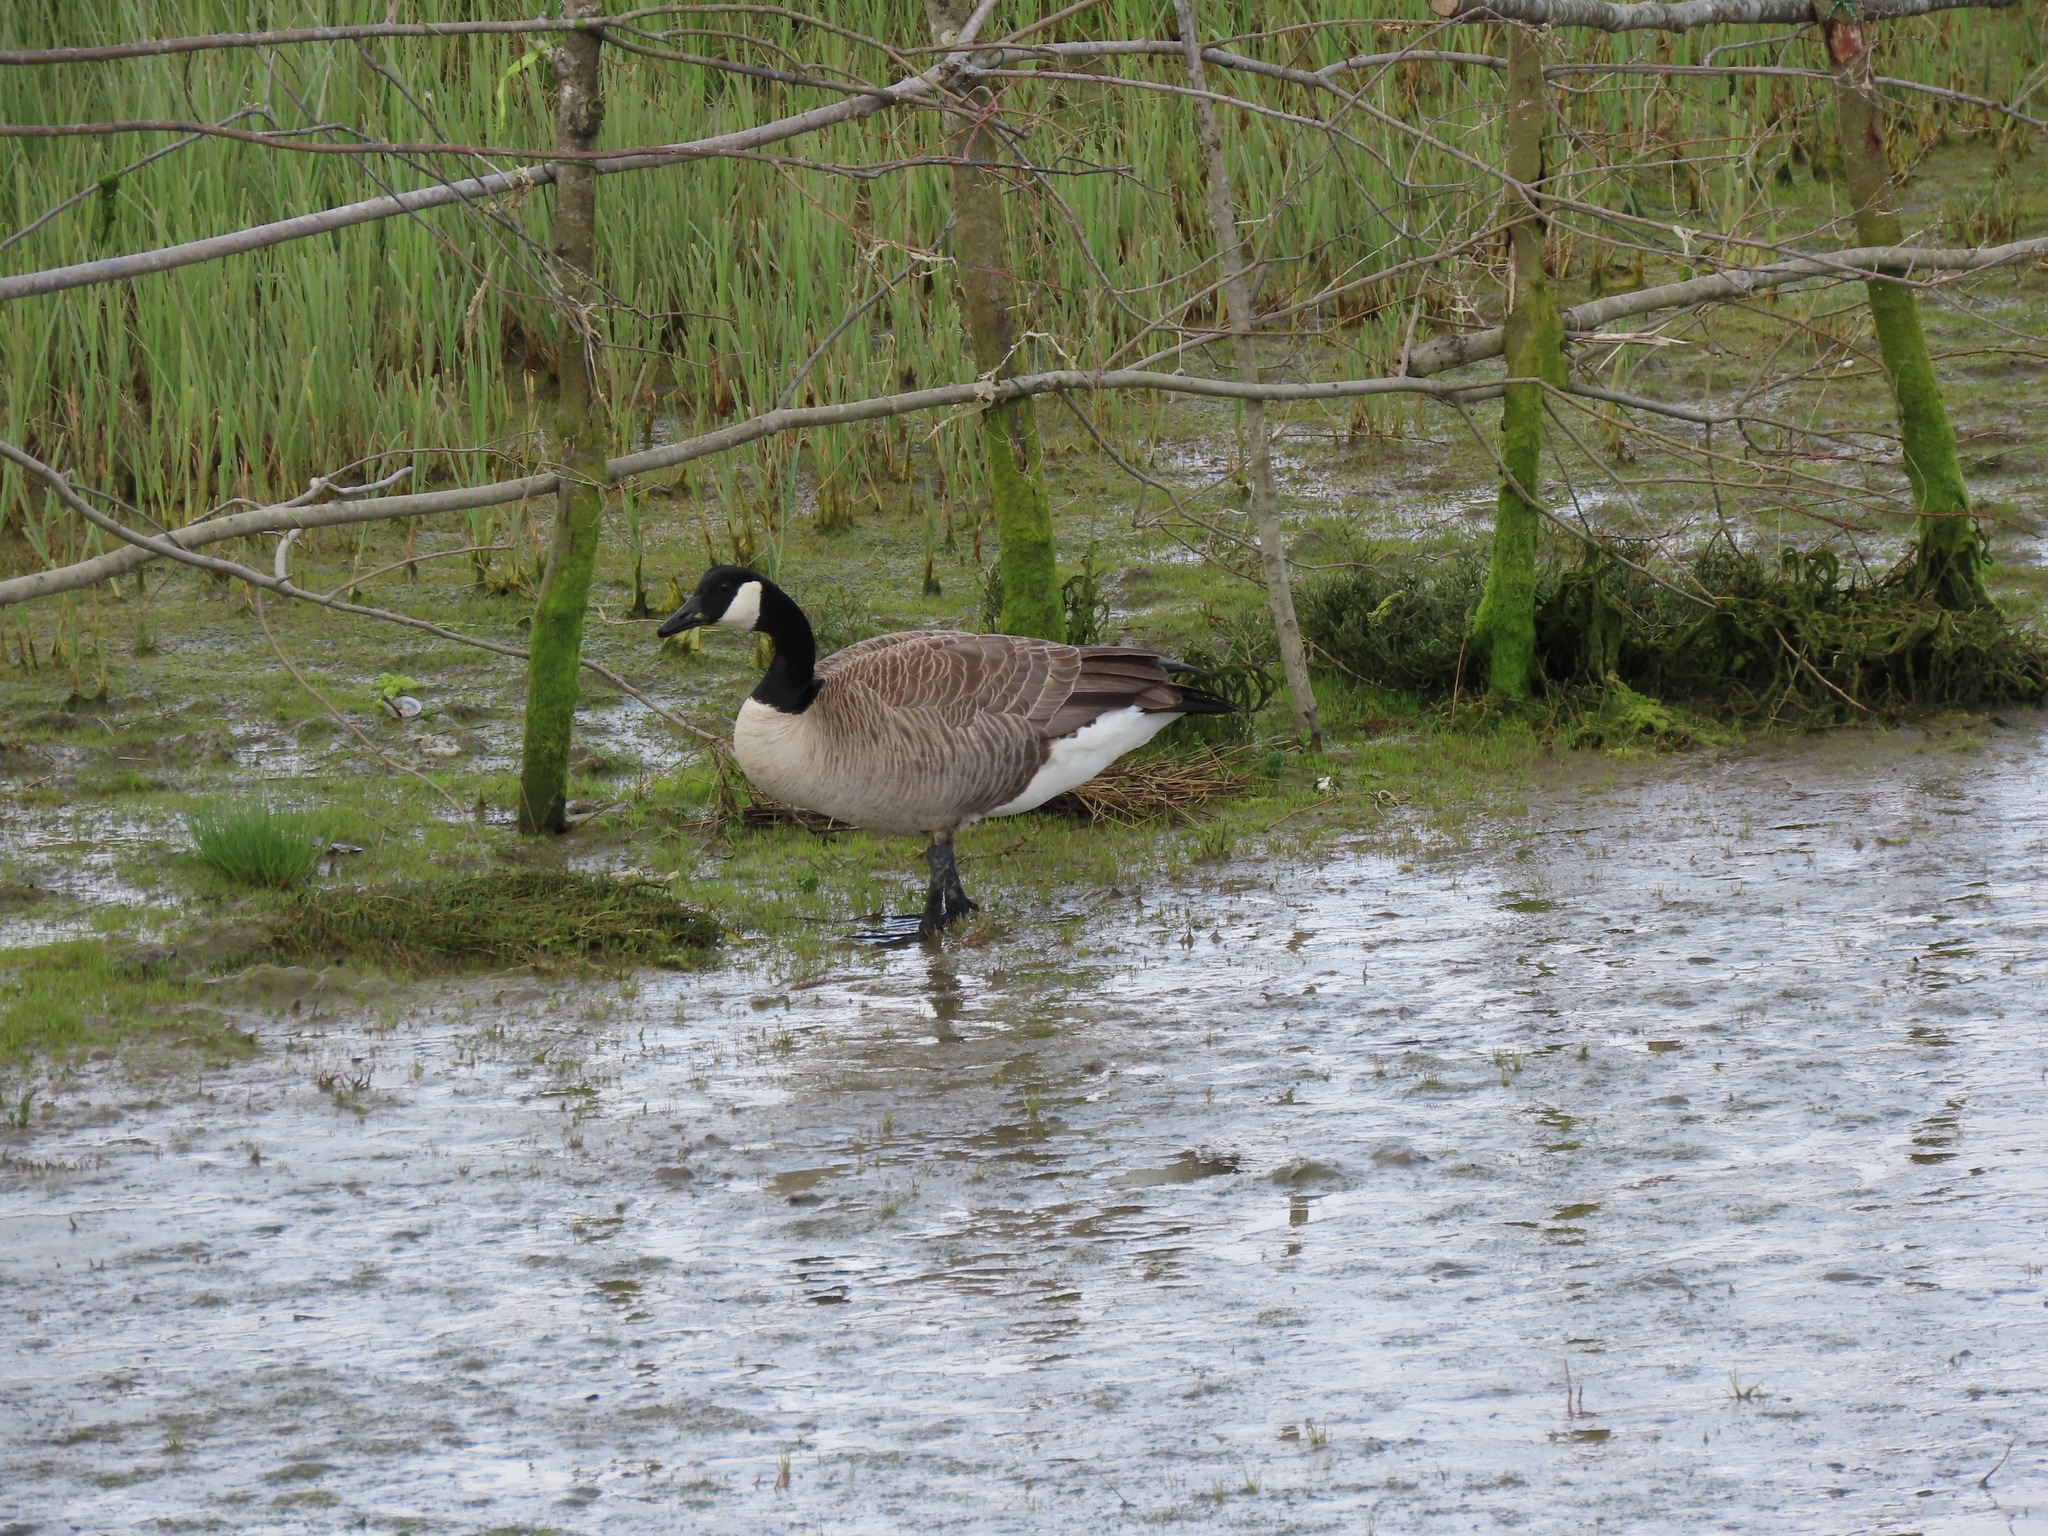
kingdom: Animalia
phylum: Chordata
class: Aves
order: Anseriformes
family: Anatidae
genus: Branta
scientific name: Branta canadensis
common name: Canada goose
